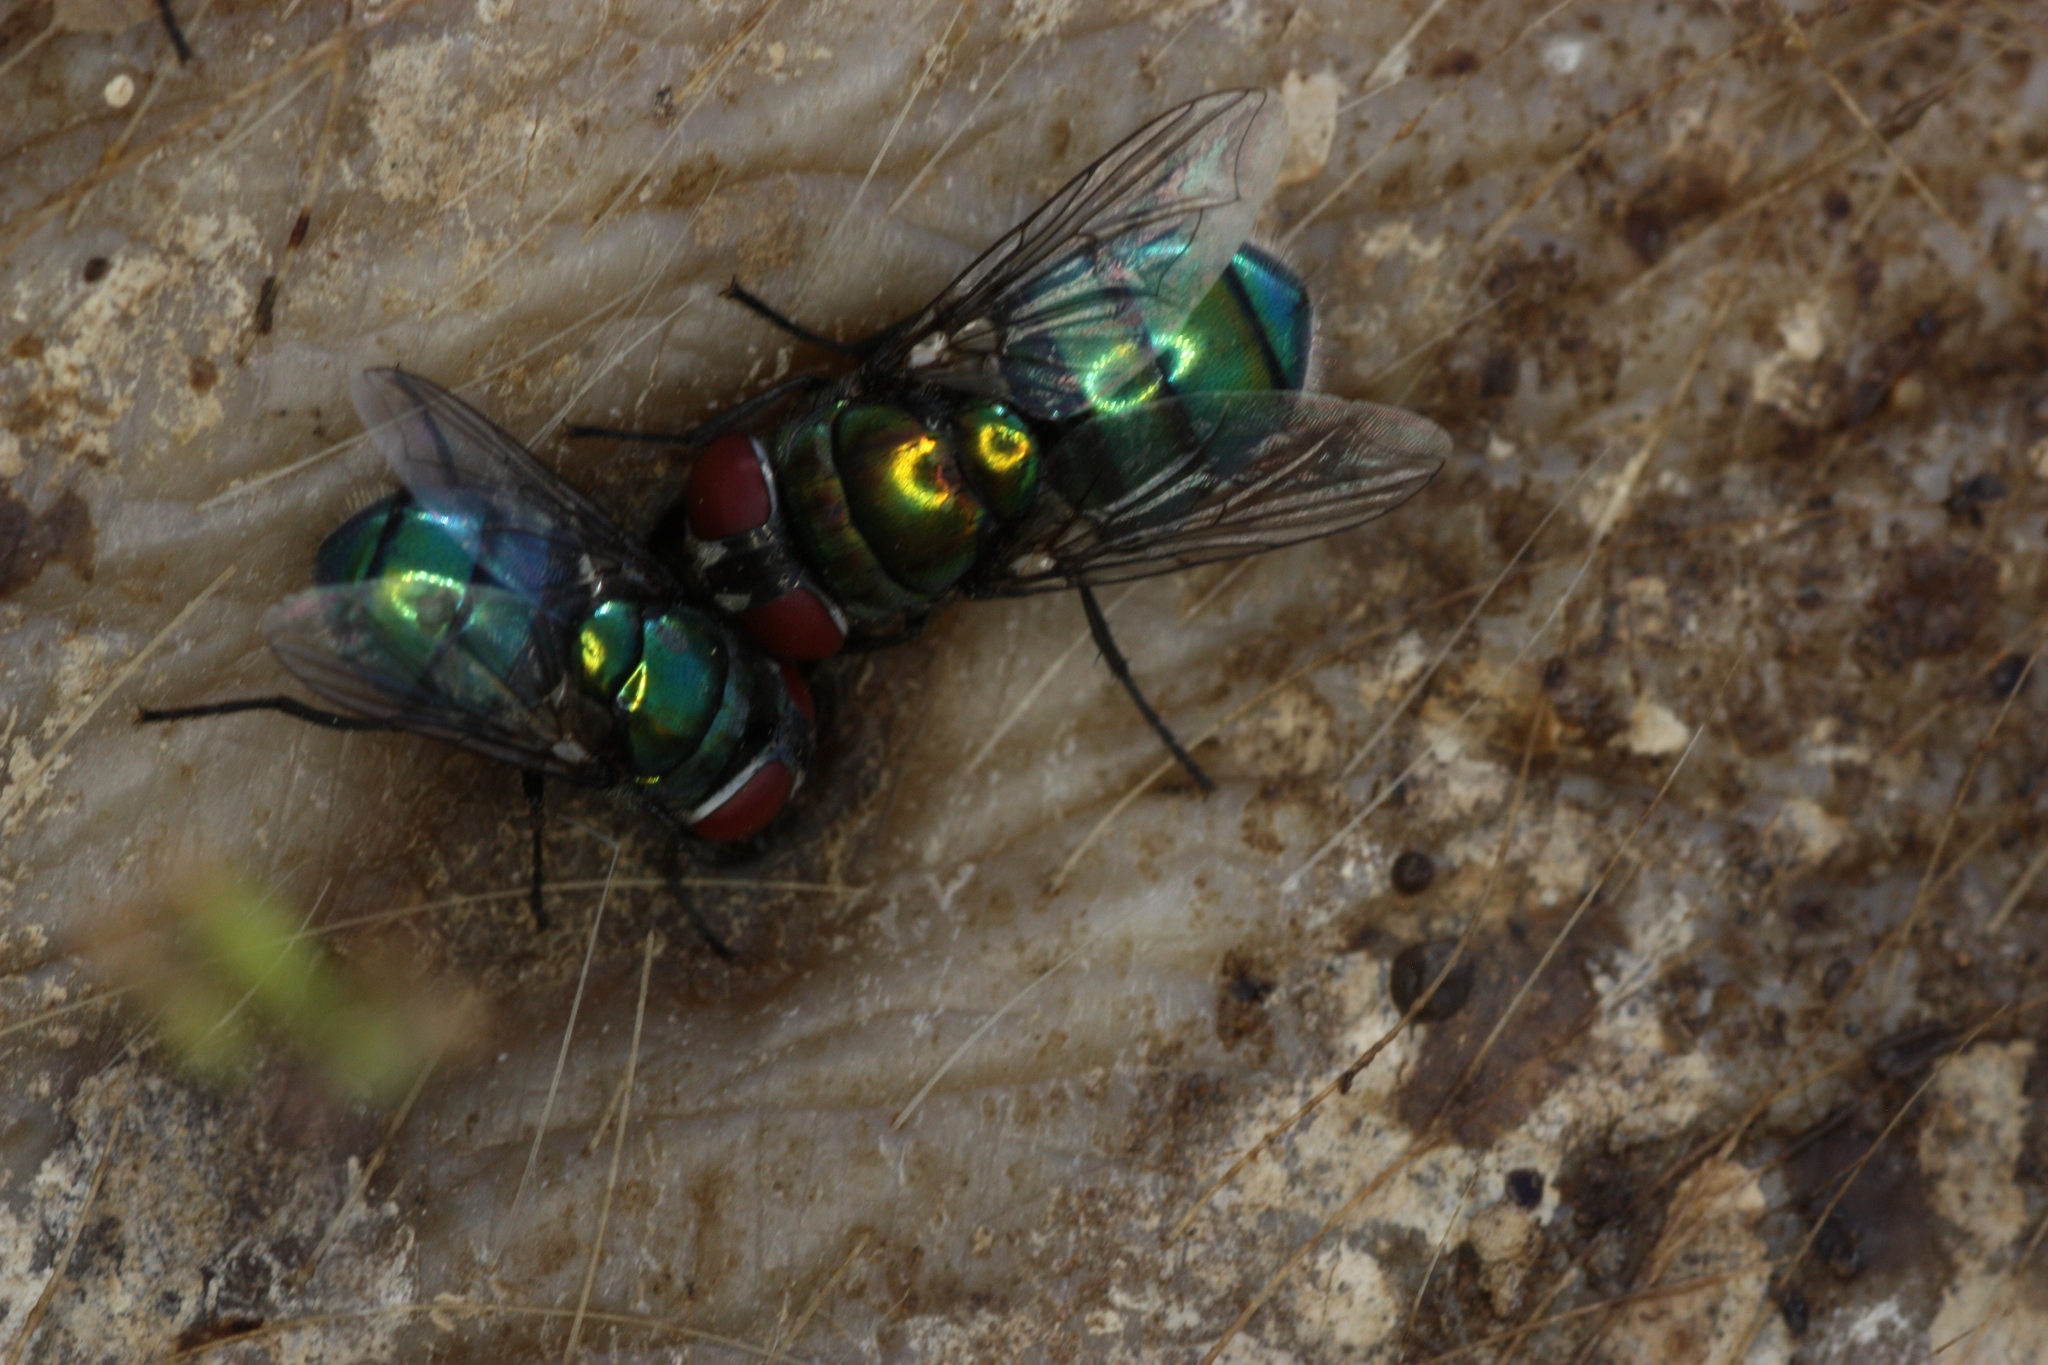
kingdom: Animalia
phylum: Arthropoda
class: Insecta
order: Diptera
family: Calliphoridae
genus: Chrysomya
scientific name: Chrysomya rufifacies
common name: Blow fly
